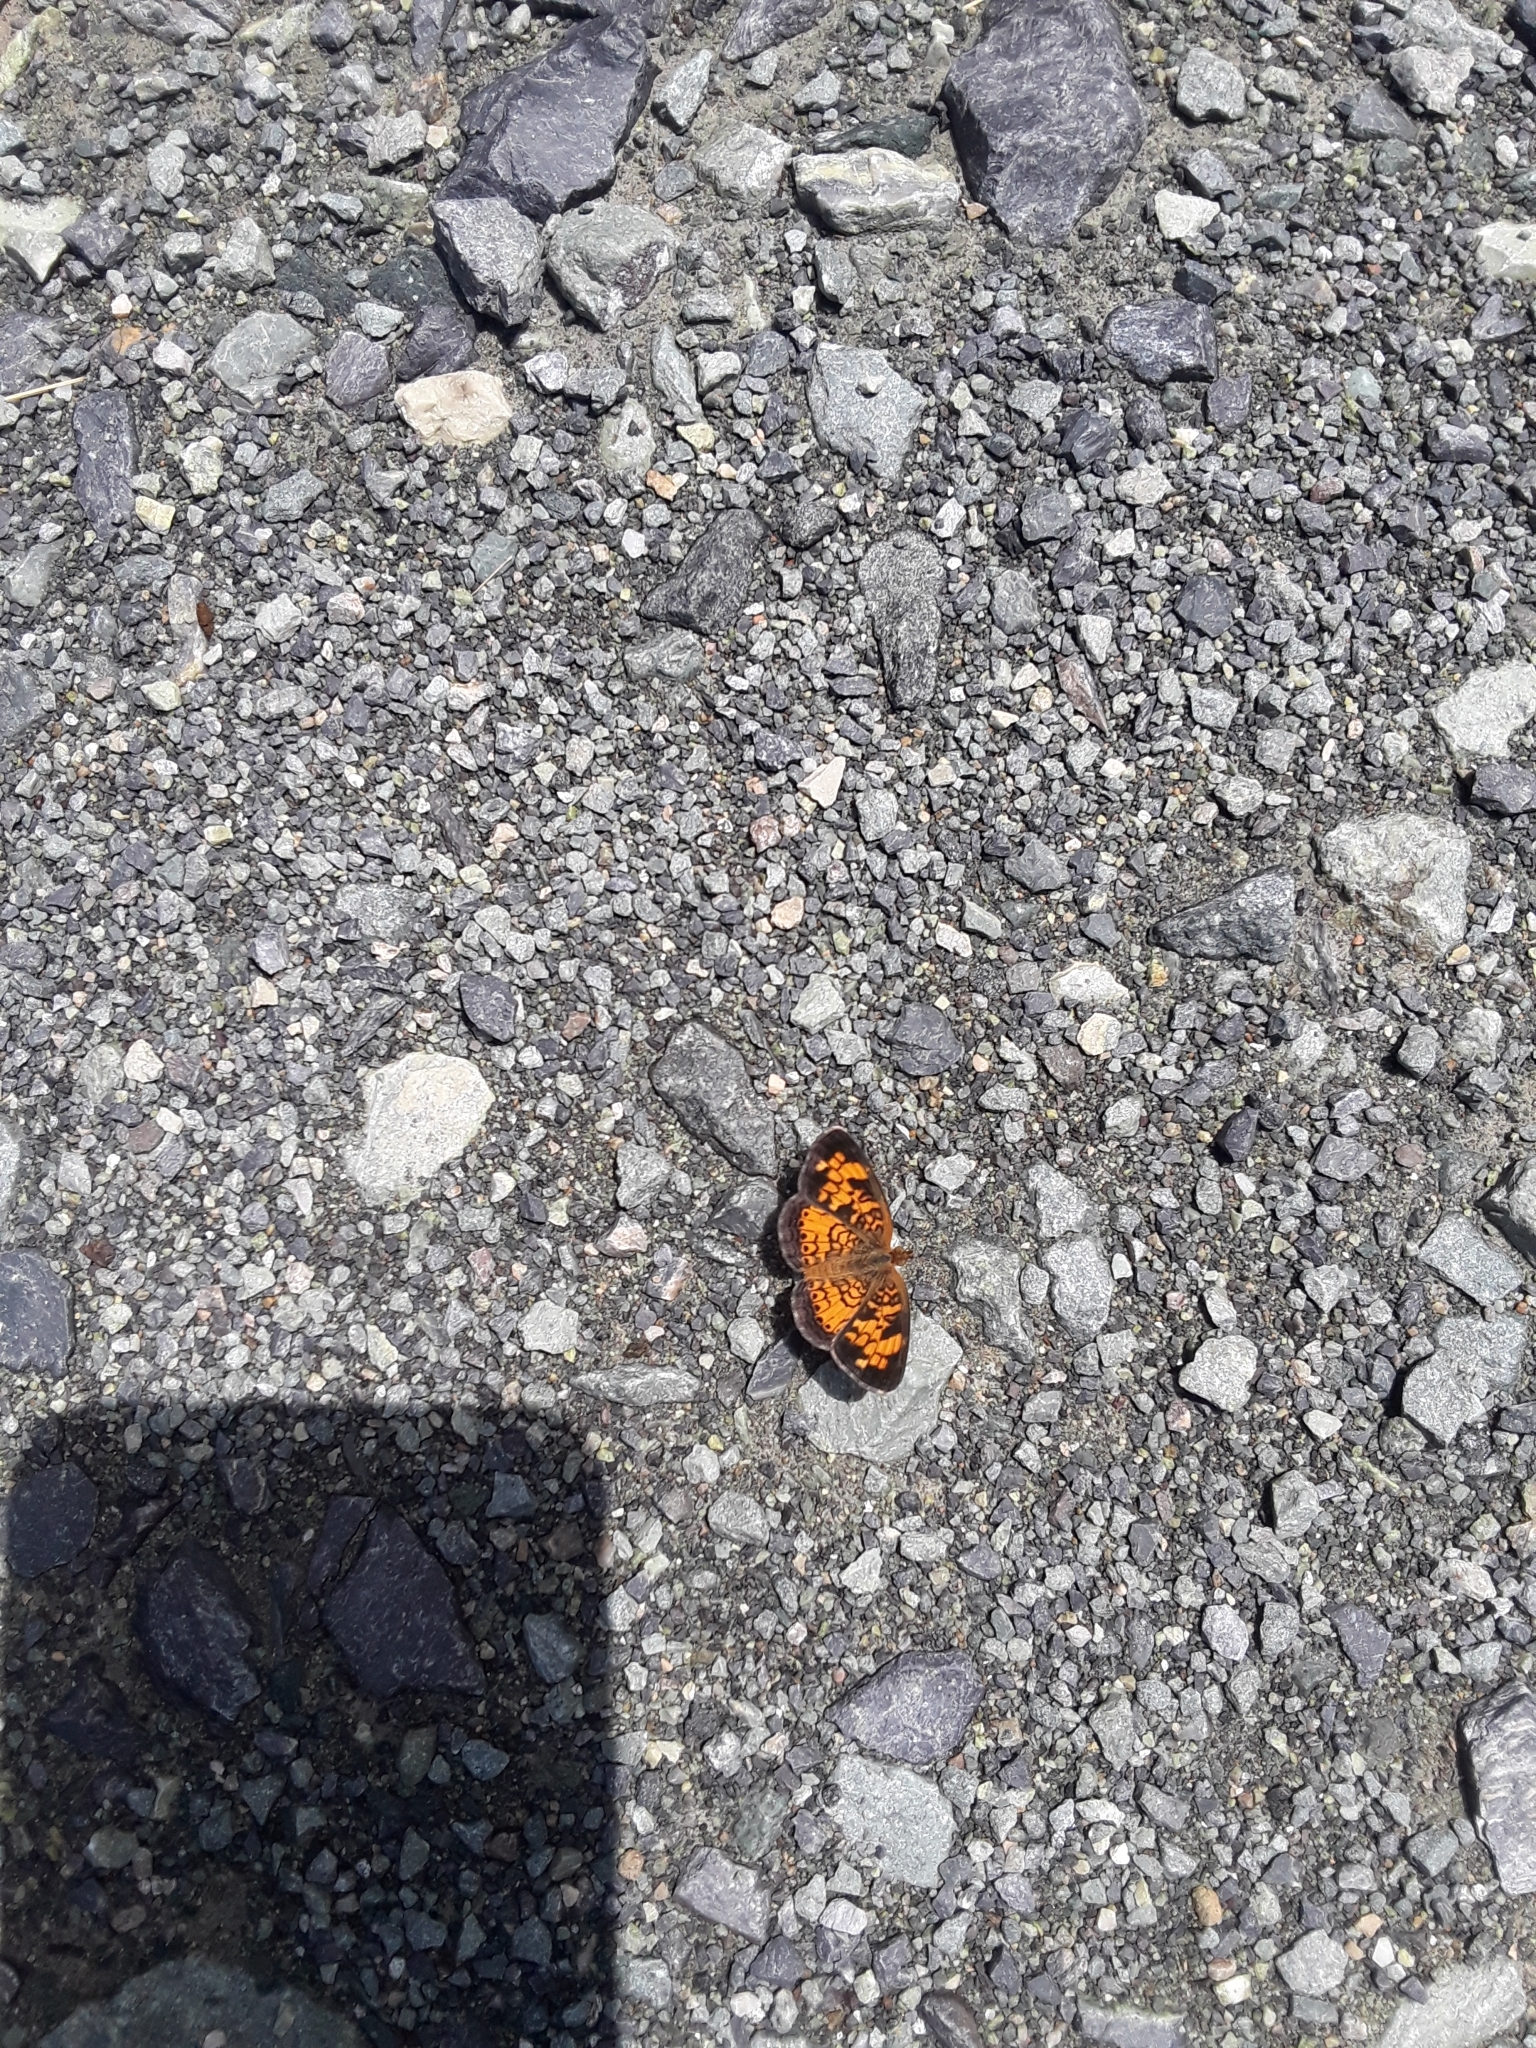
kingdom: Animalia
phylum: Arthropoda
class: Insecta
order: Lepidoptera
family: Nymphalidae
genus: Phyciodes
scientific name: Phyciodes tharos
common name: Pearl crescent
